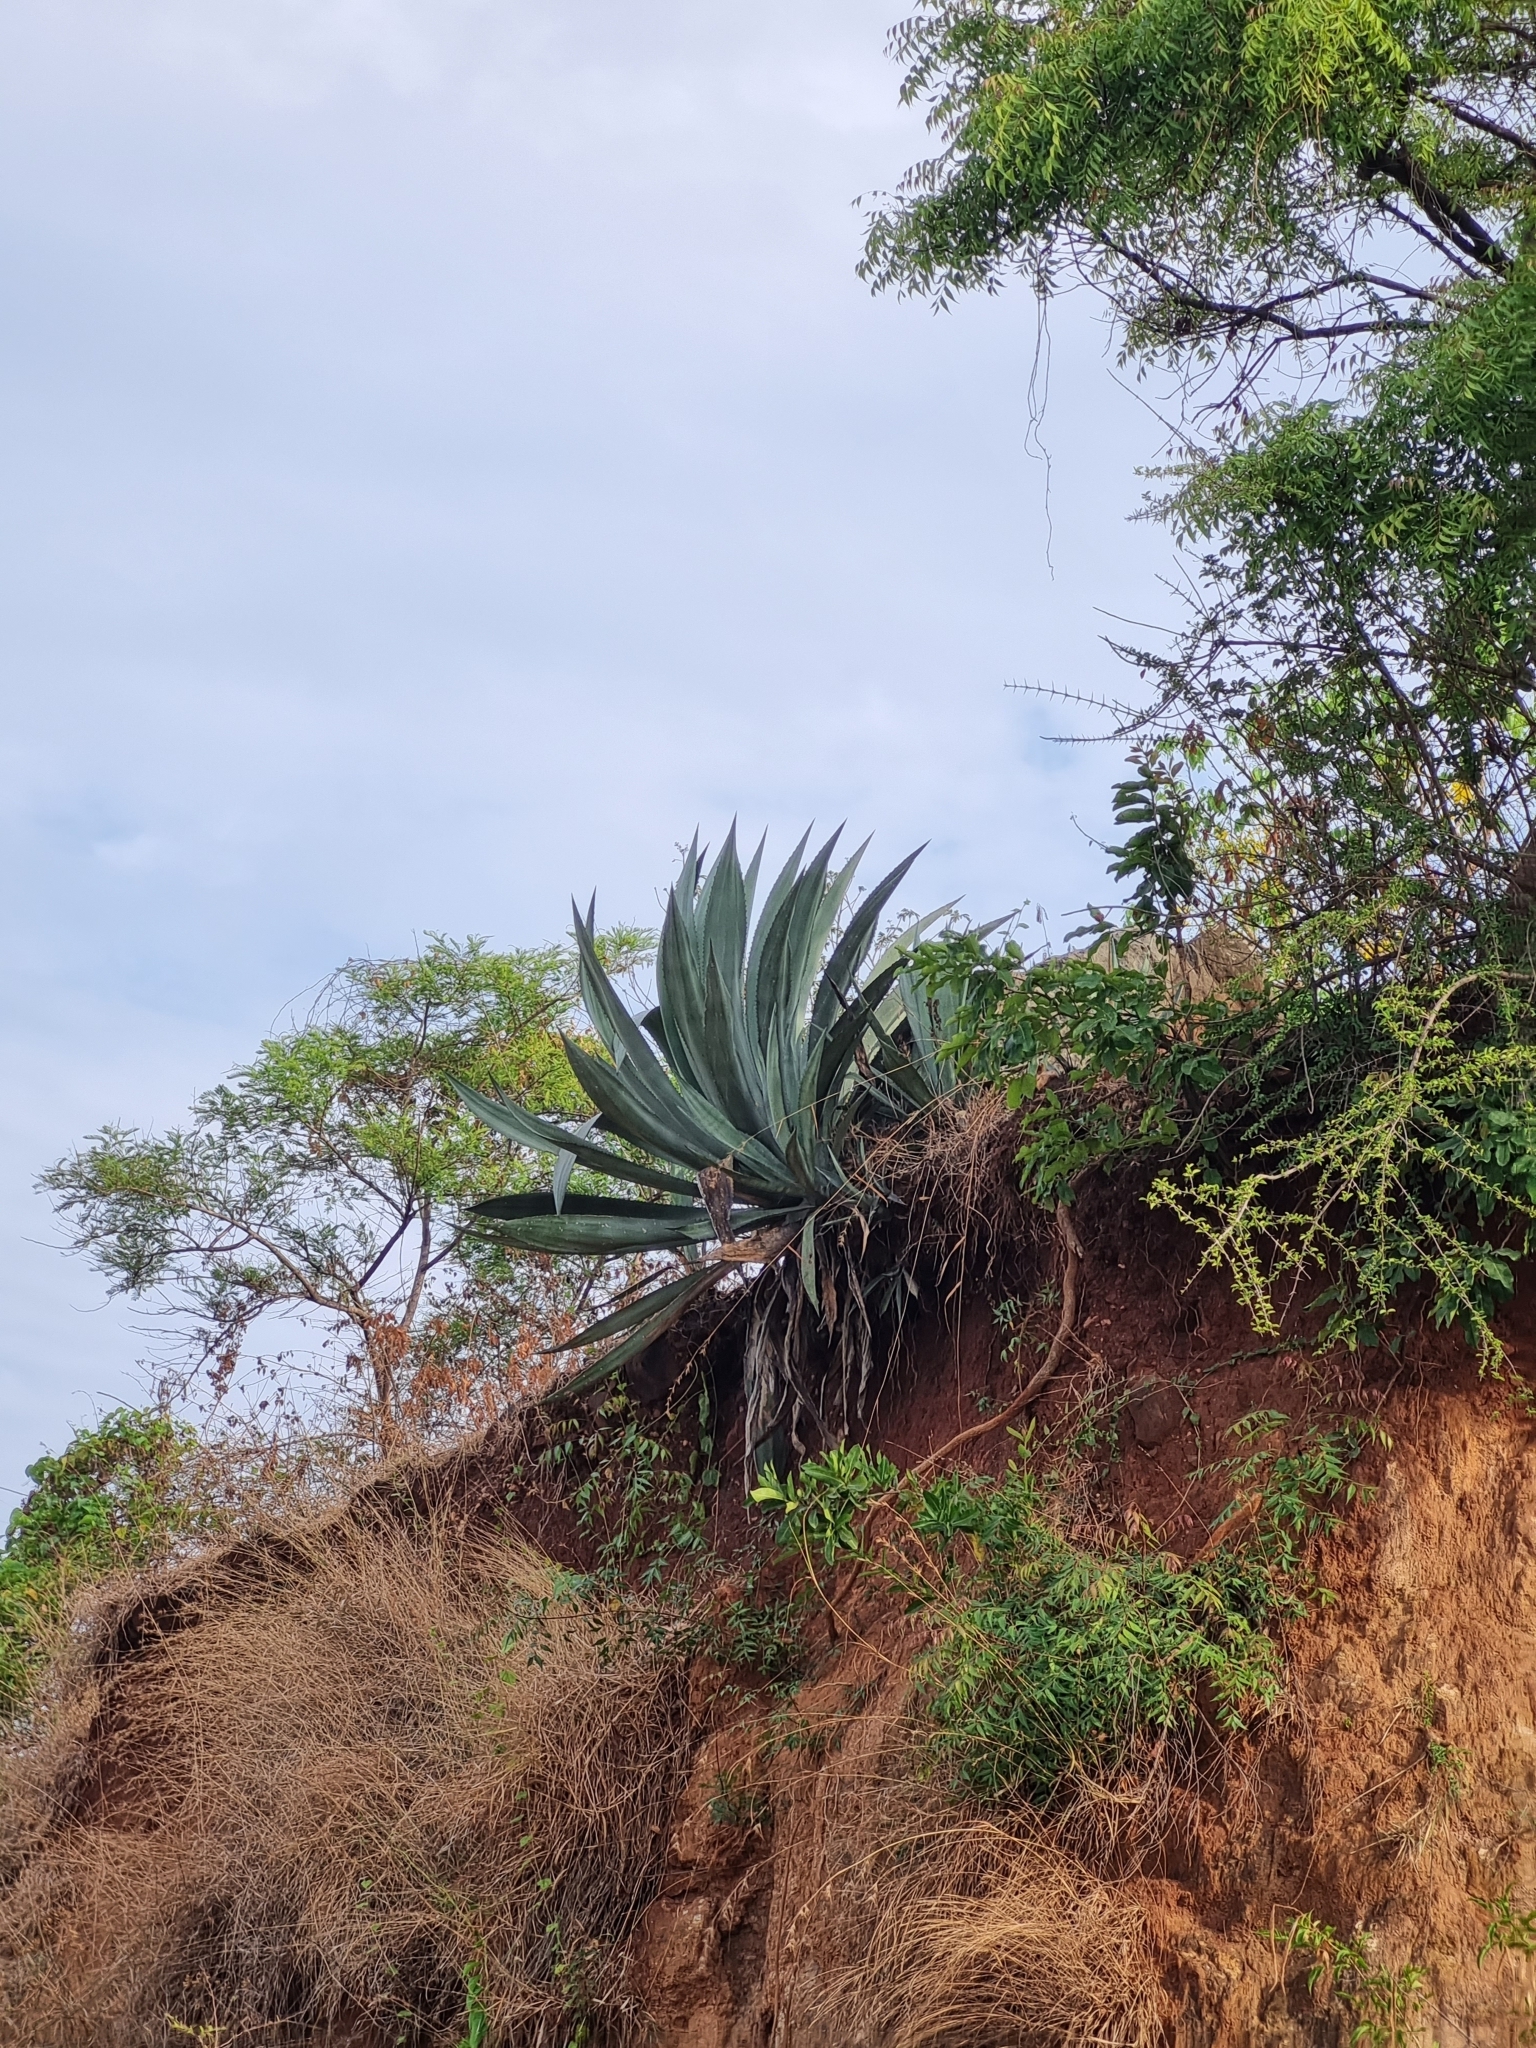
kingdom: Plantae
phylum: Tracheophyta
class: Liliopsida
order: Asparagales
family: Asparagaceae
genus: Agave
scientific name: Agave americana
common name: Centuryplant
